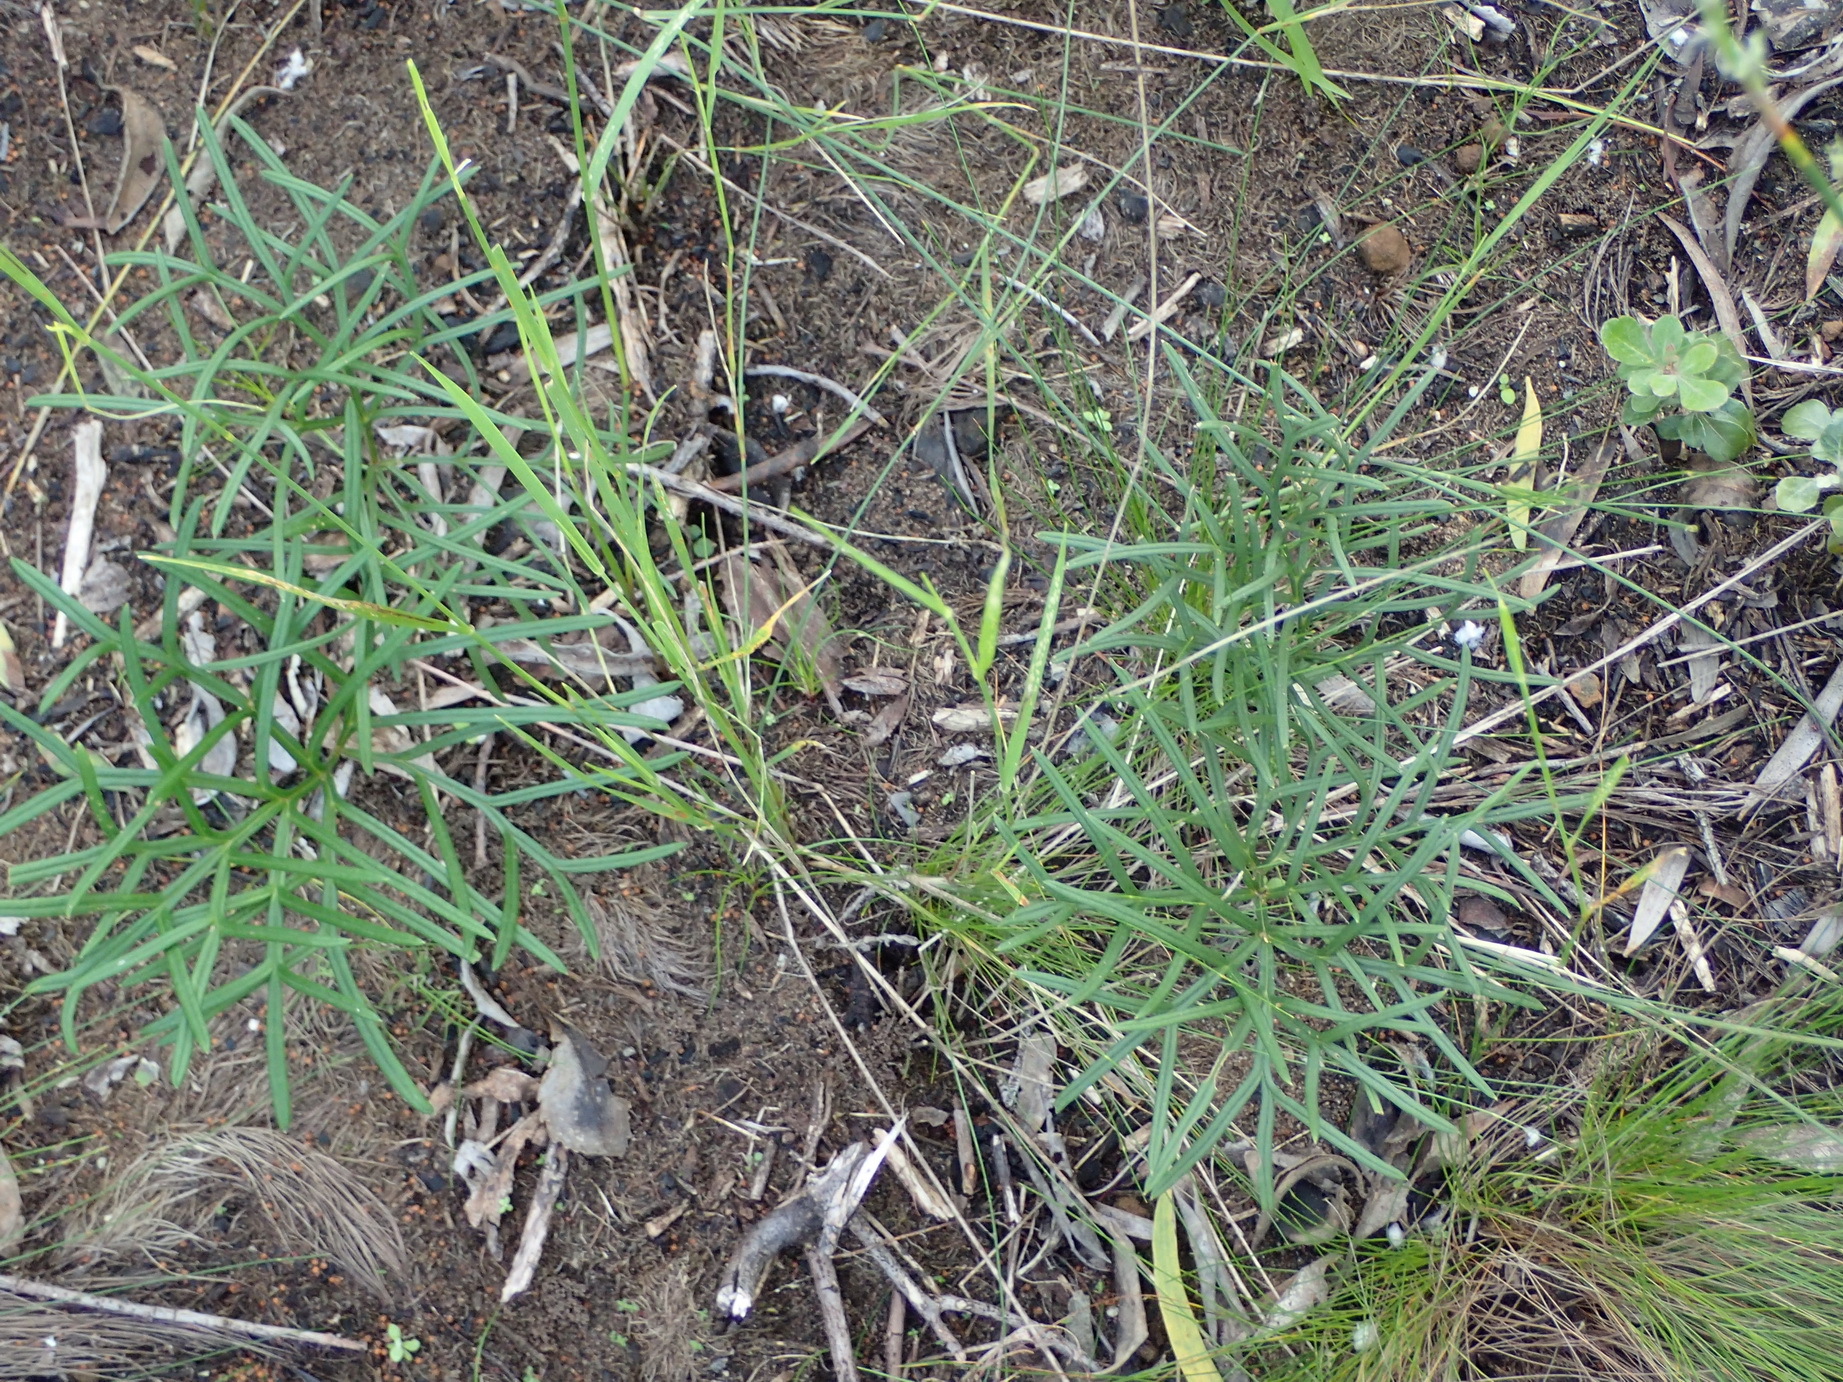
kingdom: Plantae
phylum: Tracheophyta
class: Magnoliopsida
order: Geraniales
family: Geraniaceae
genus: Pelargonium
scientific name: Pelargonium caffrum
